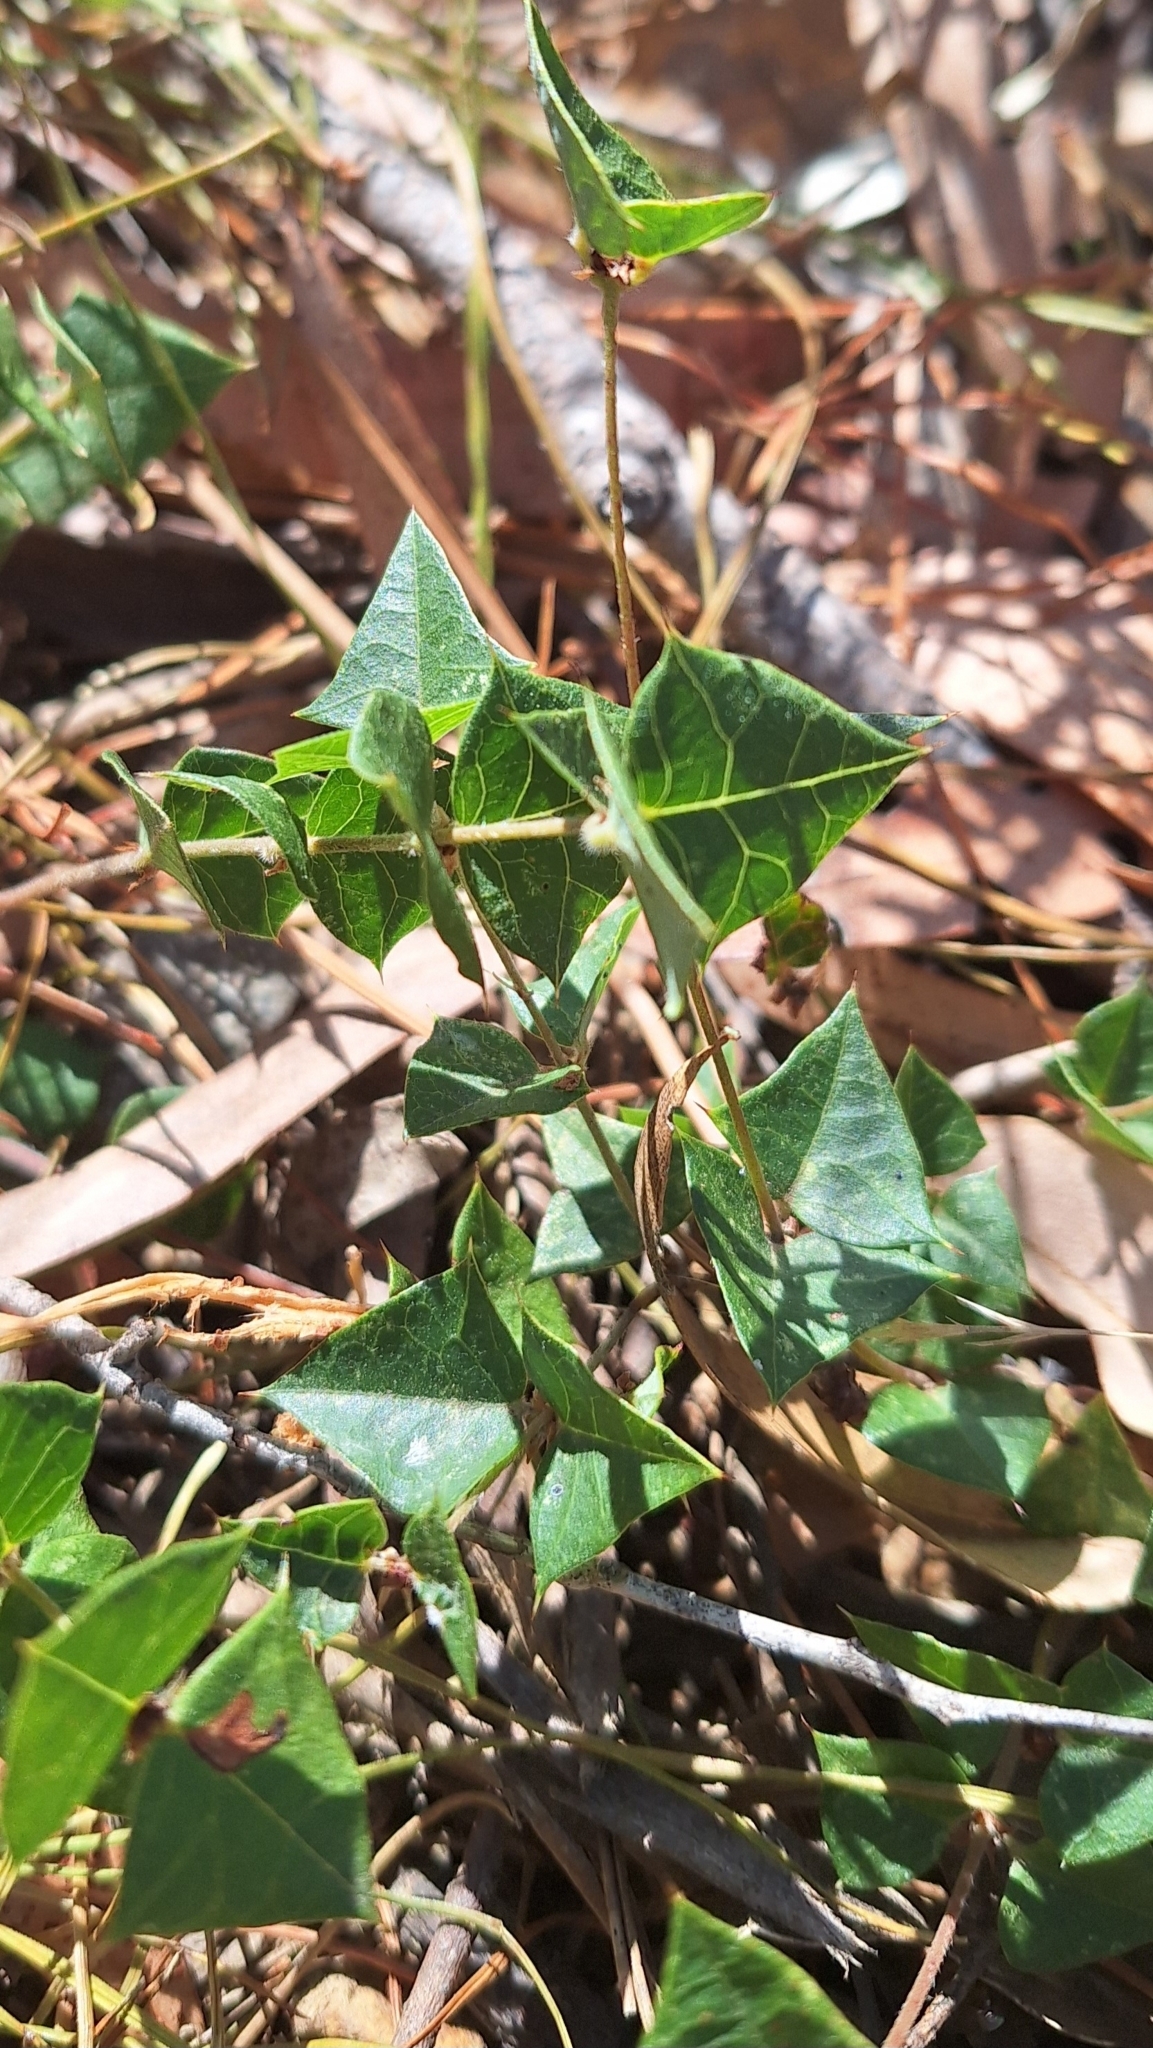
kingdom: Plantae
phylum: Tracheophyta
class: Magnoliopsida
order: Fabales
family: Fabaceae
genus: Platylobium
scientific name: Platylobium obtusangulum
